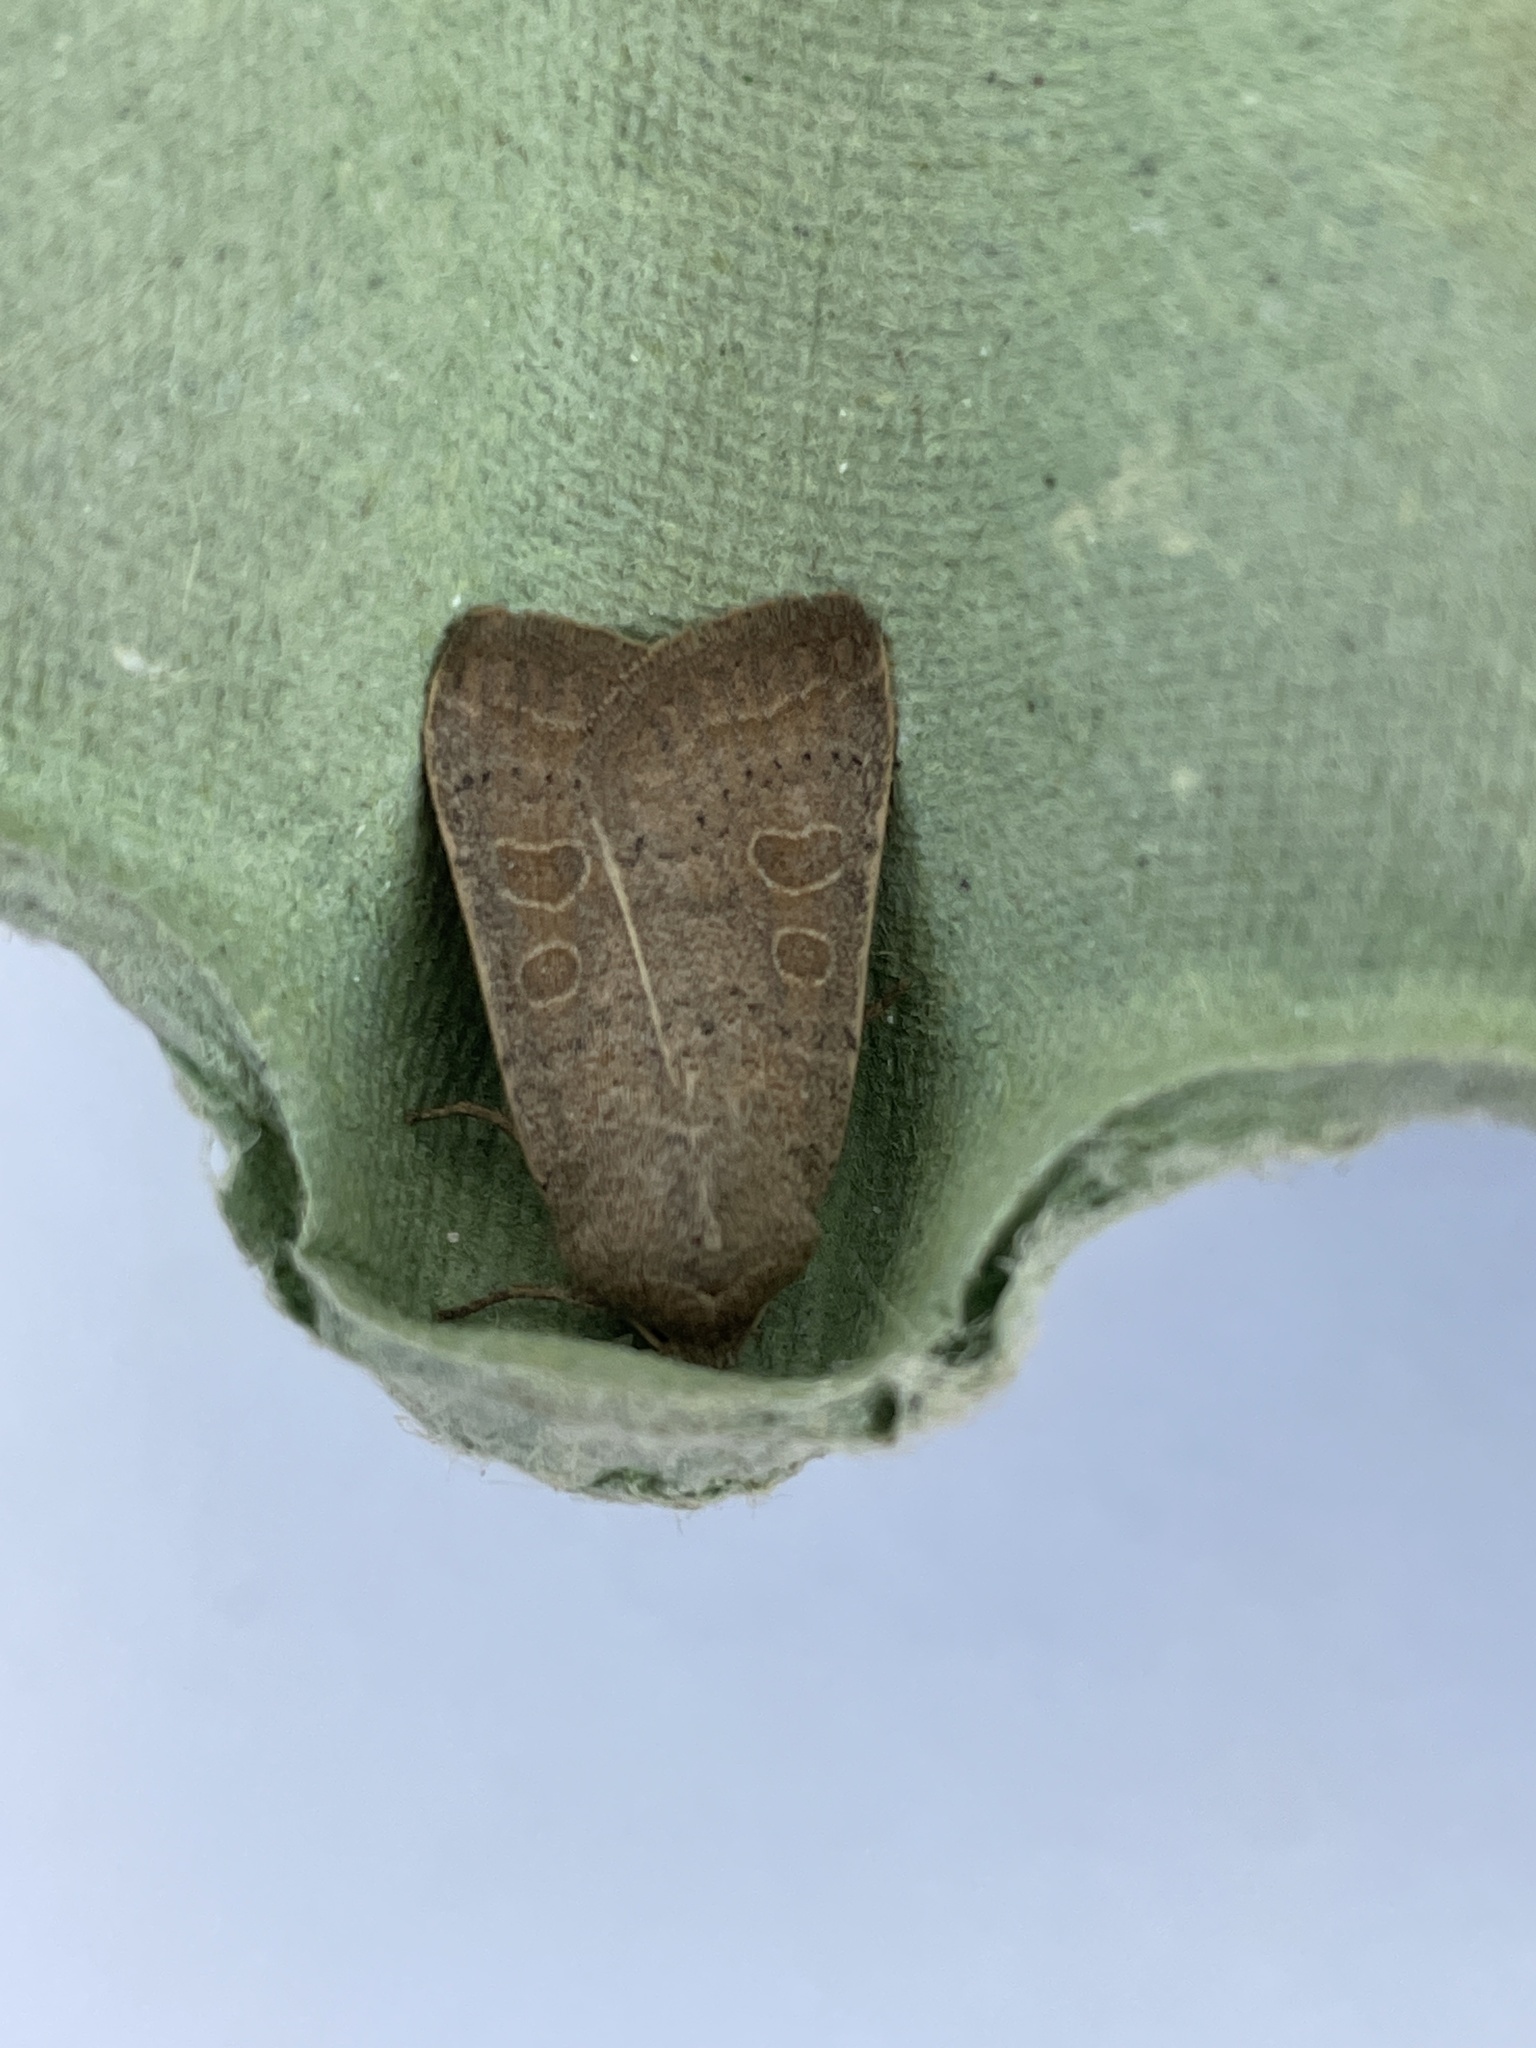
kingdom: Animalia
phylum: Arthropoda
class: Insecta
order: Lepidoptera
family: Noctuidae
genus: Hoplodrina
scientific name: Hoplodrina ambigua
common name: Vine's rustic
